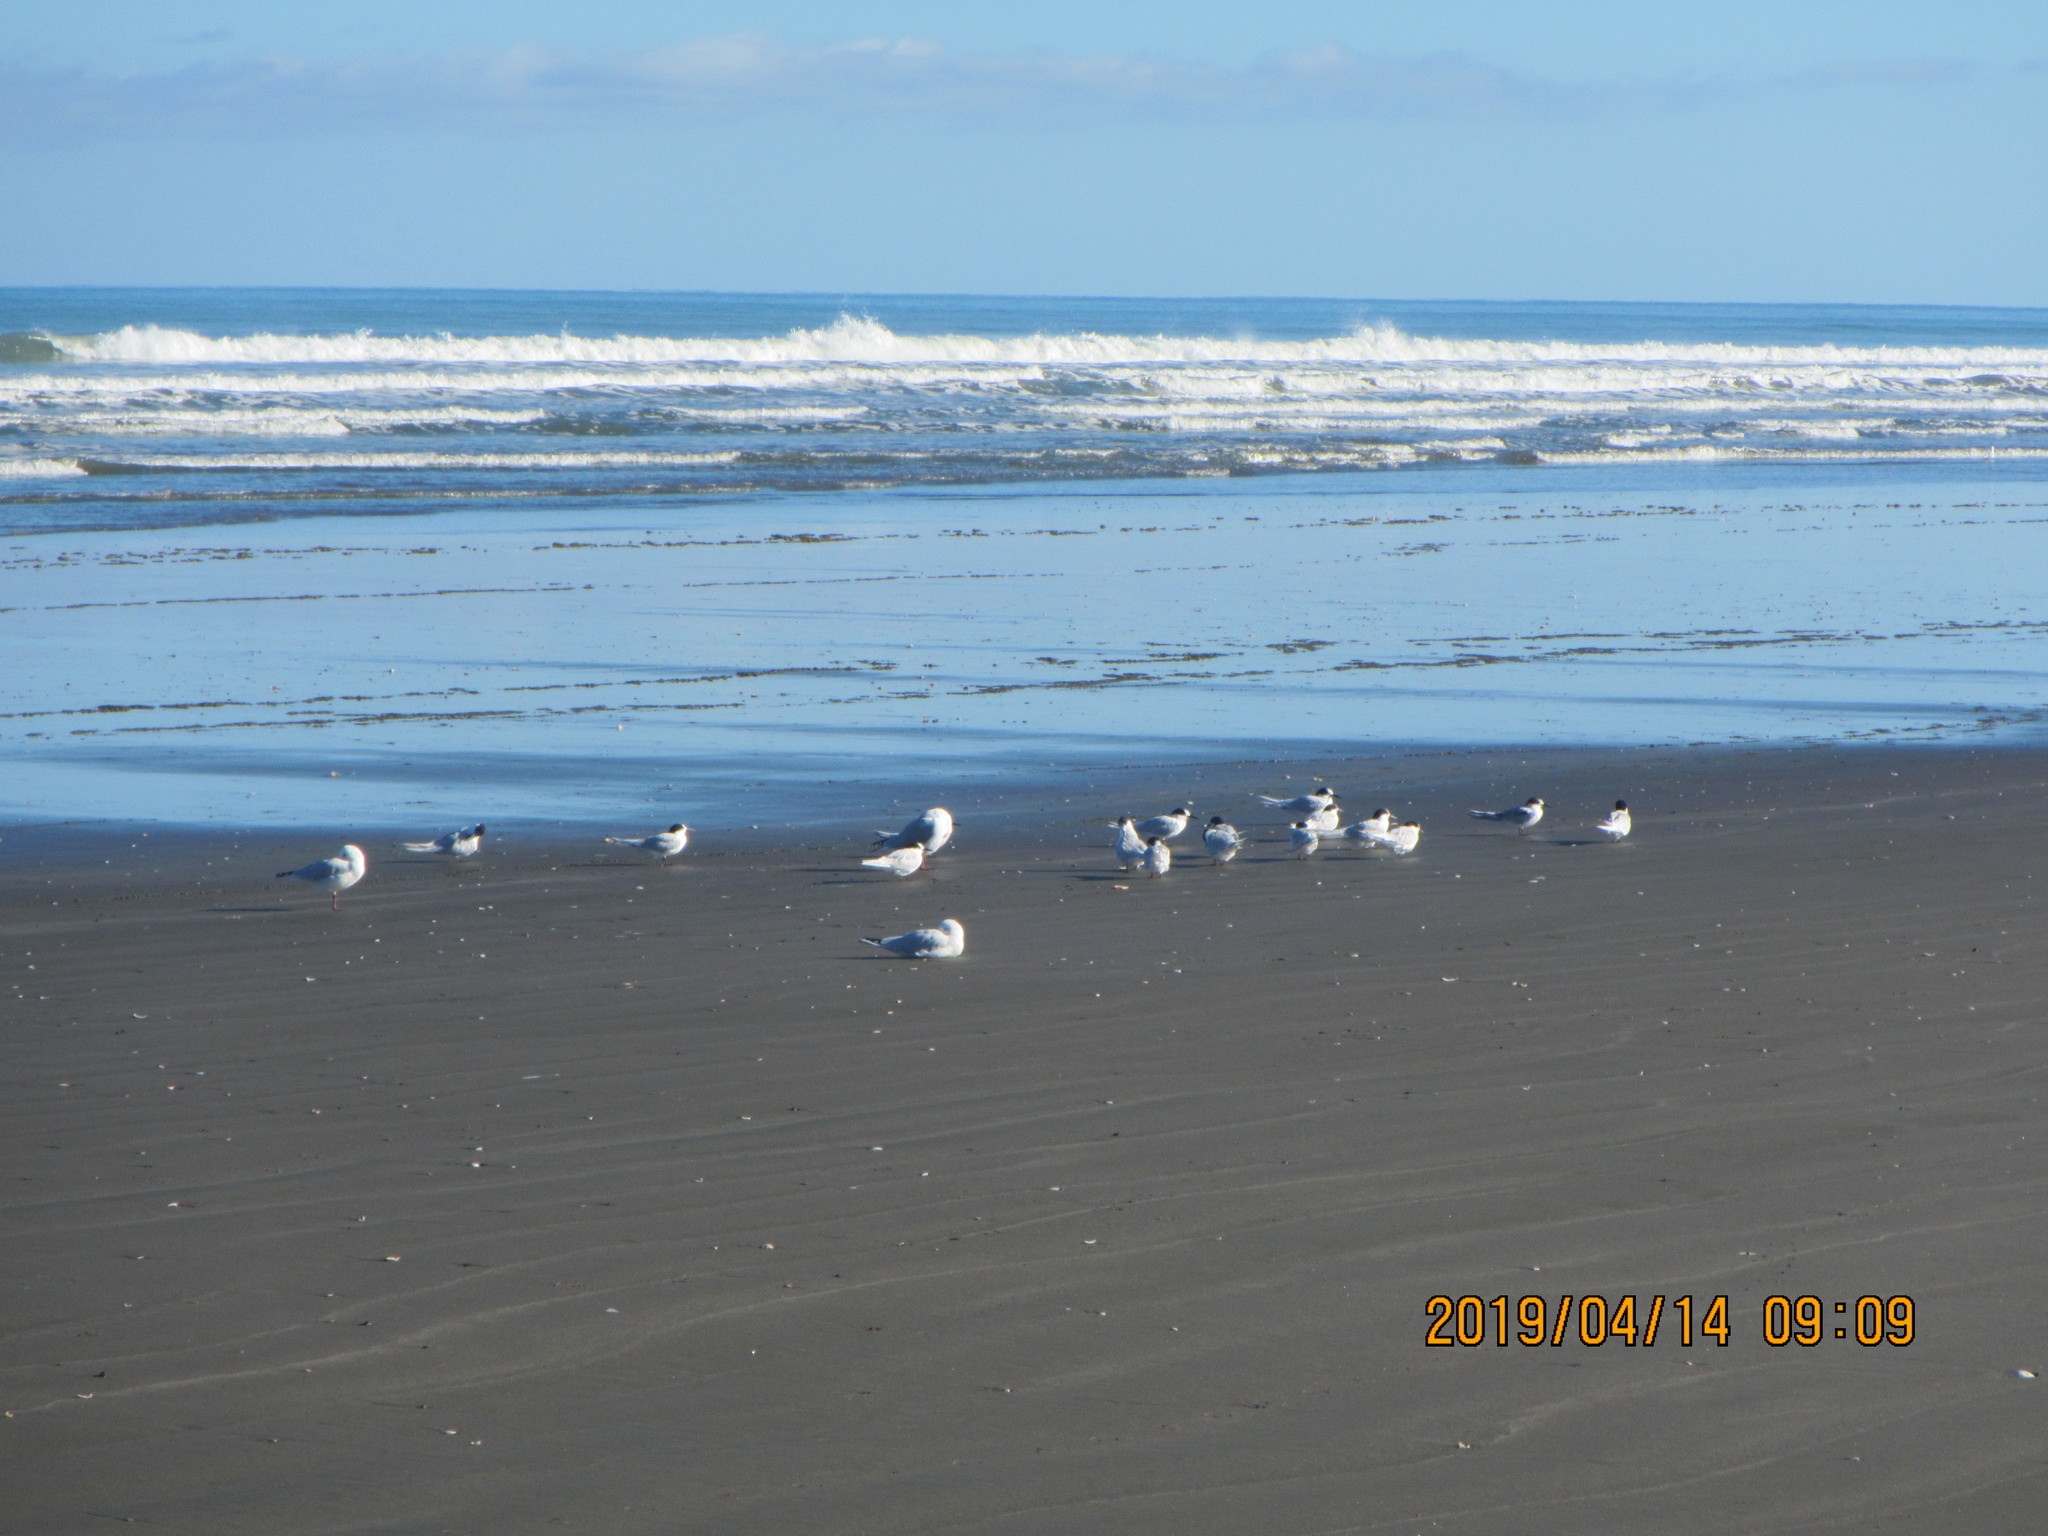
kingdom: Animalia
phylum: Chordata
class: Aves
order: Charadriiformes
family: Laridae
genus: Sterna
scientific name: Sterna striata
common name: White-fronted tern
